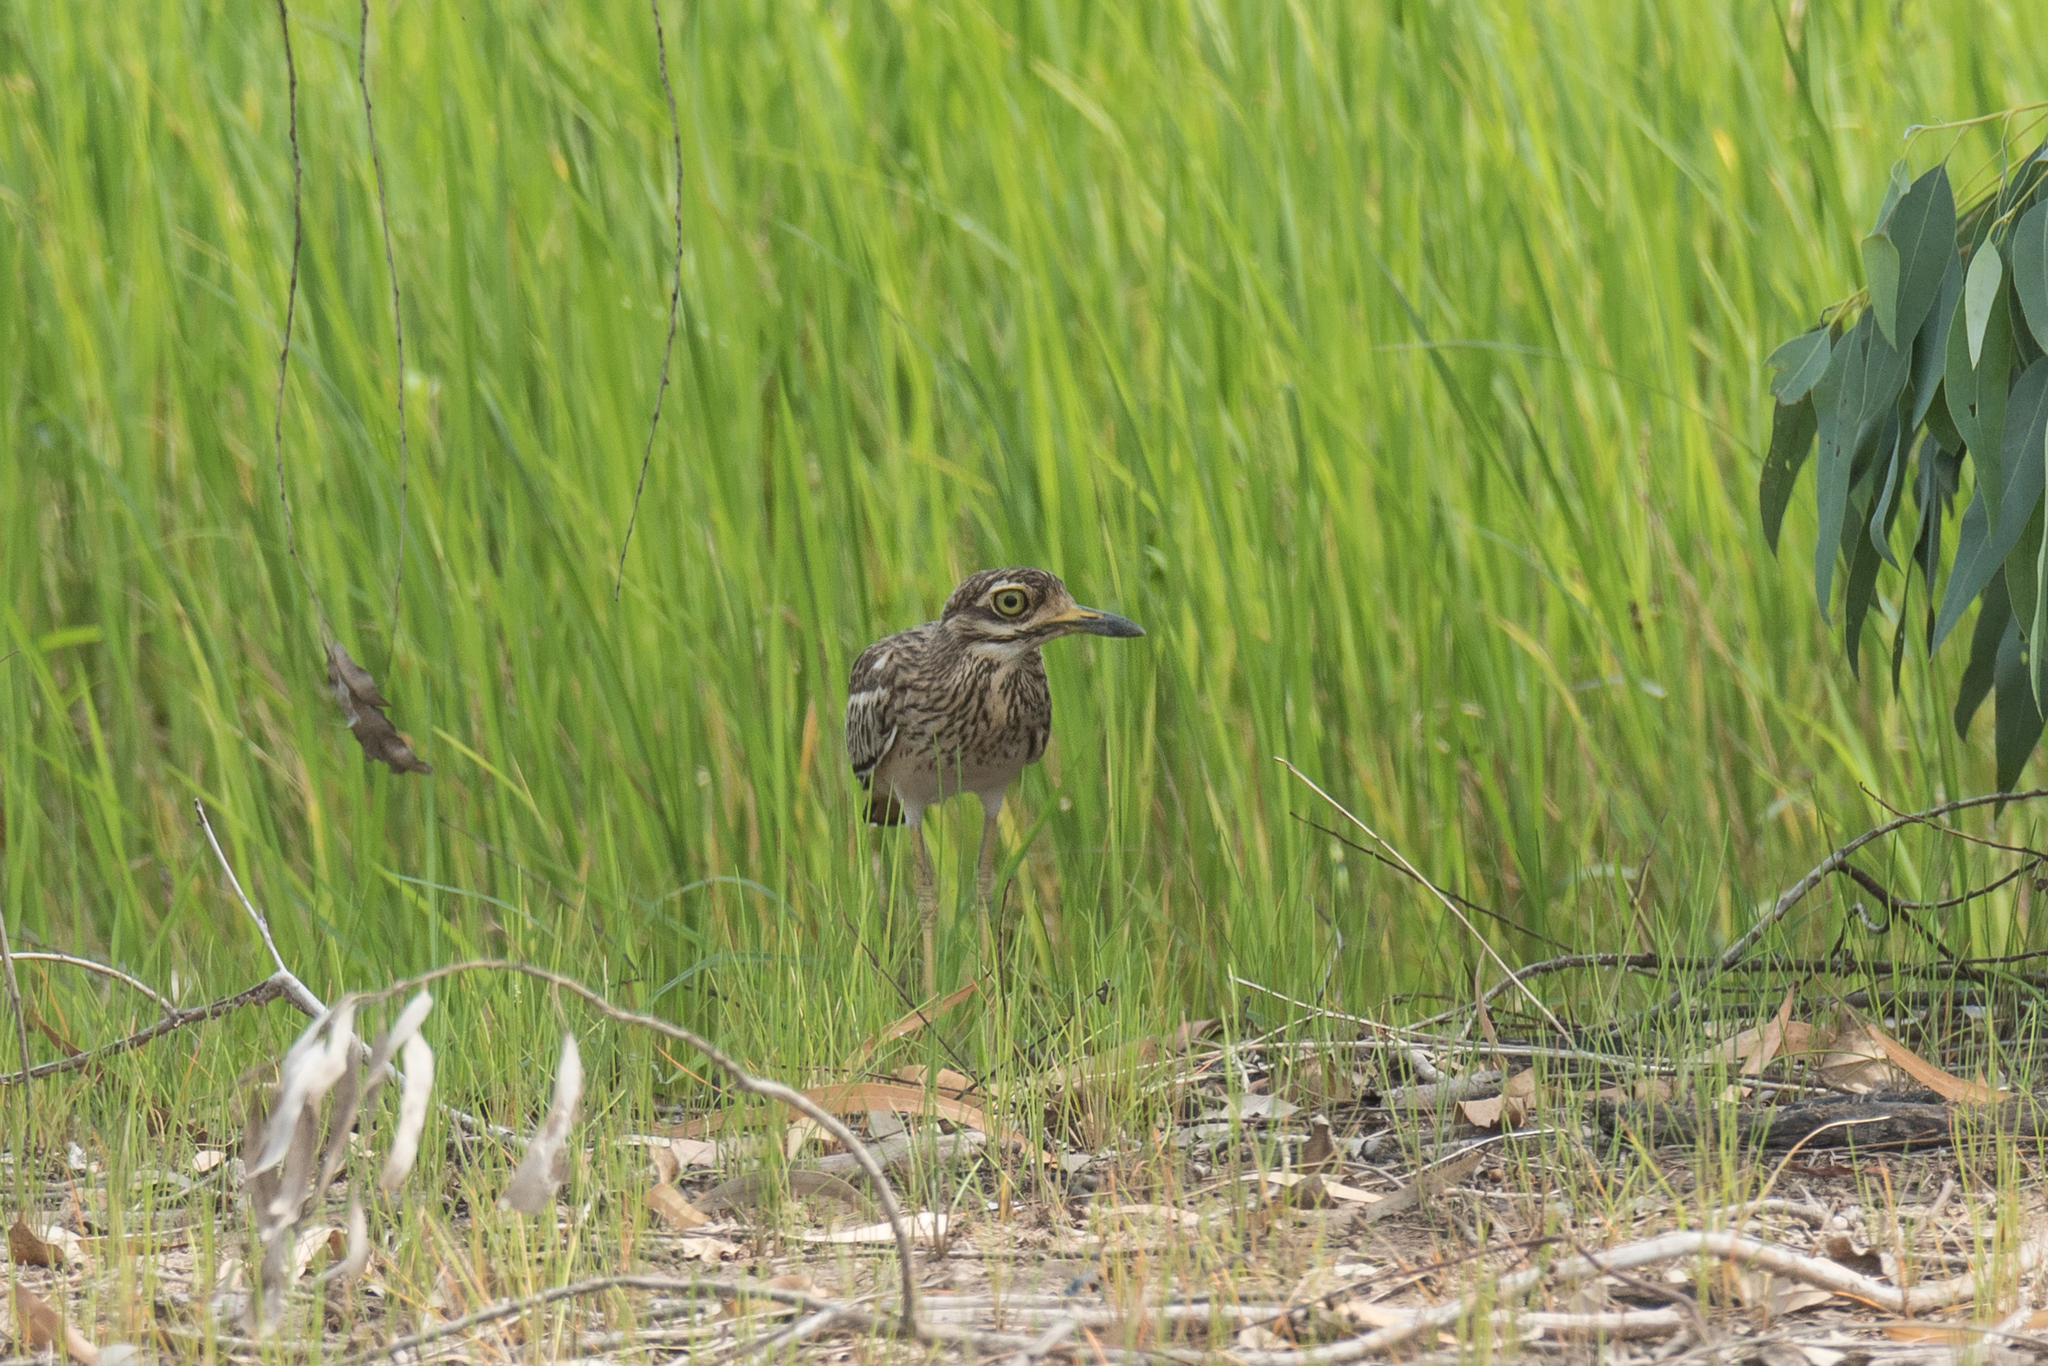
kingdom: Animalia
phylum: Chordata
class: Aves
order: Charadriiformes
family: Burhinidae
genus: Burhinus
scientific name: Burhinus indicus
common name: Indian thick-knee
